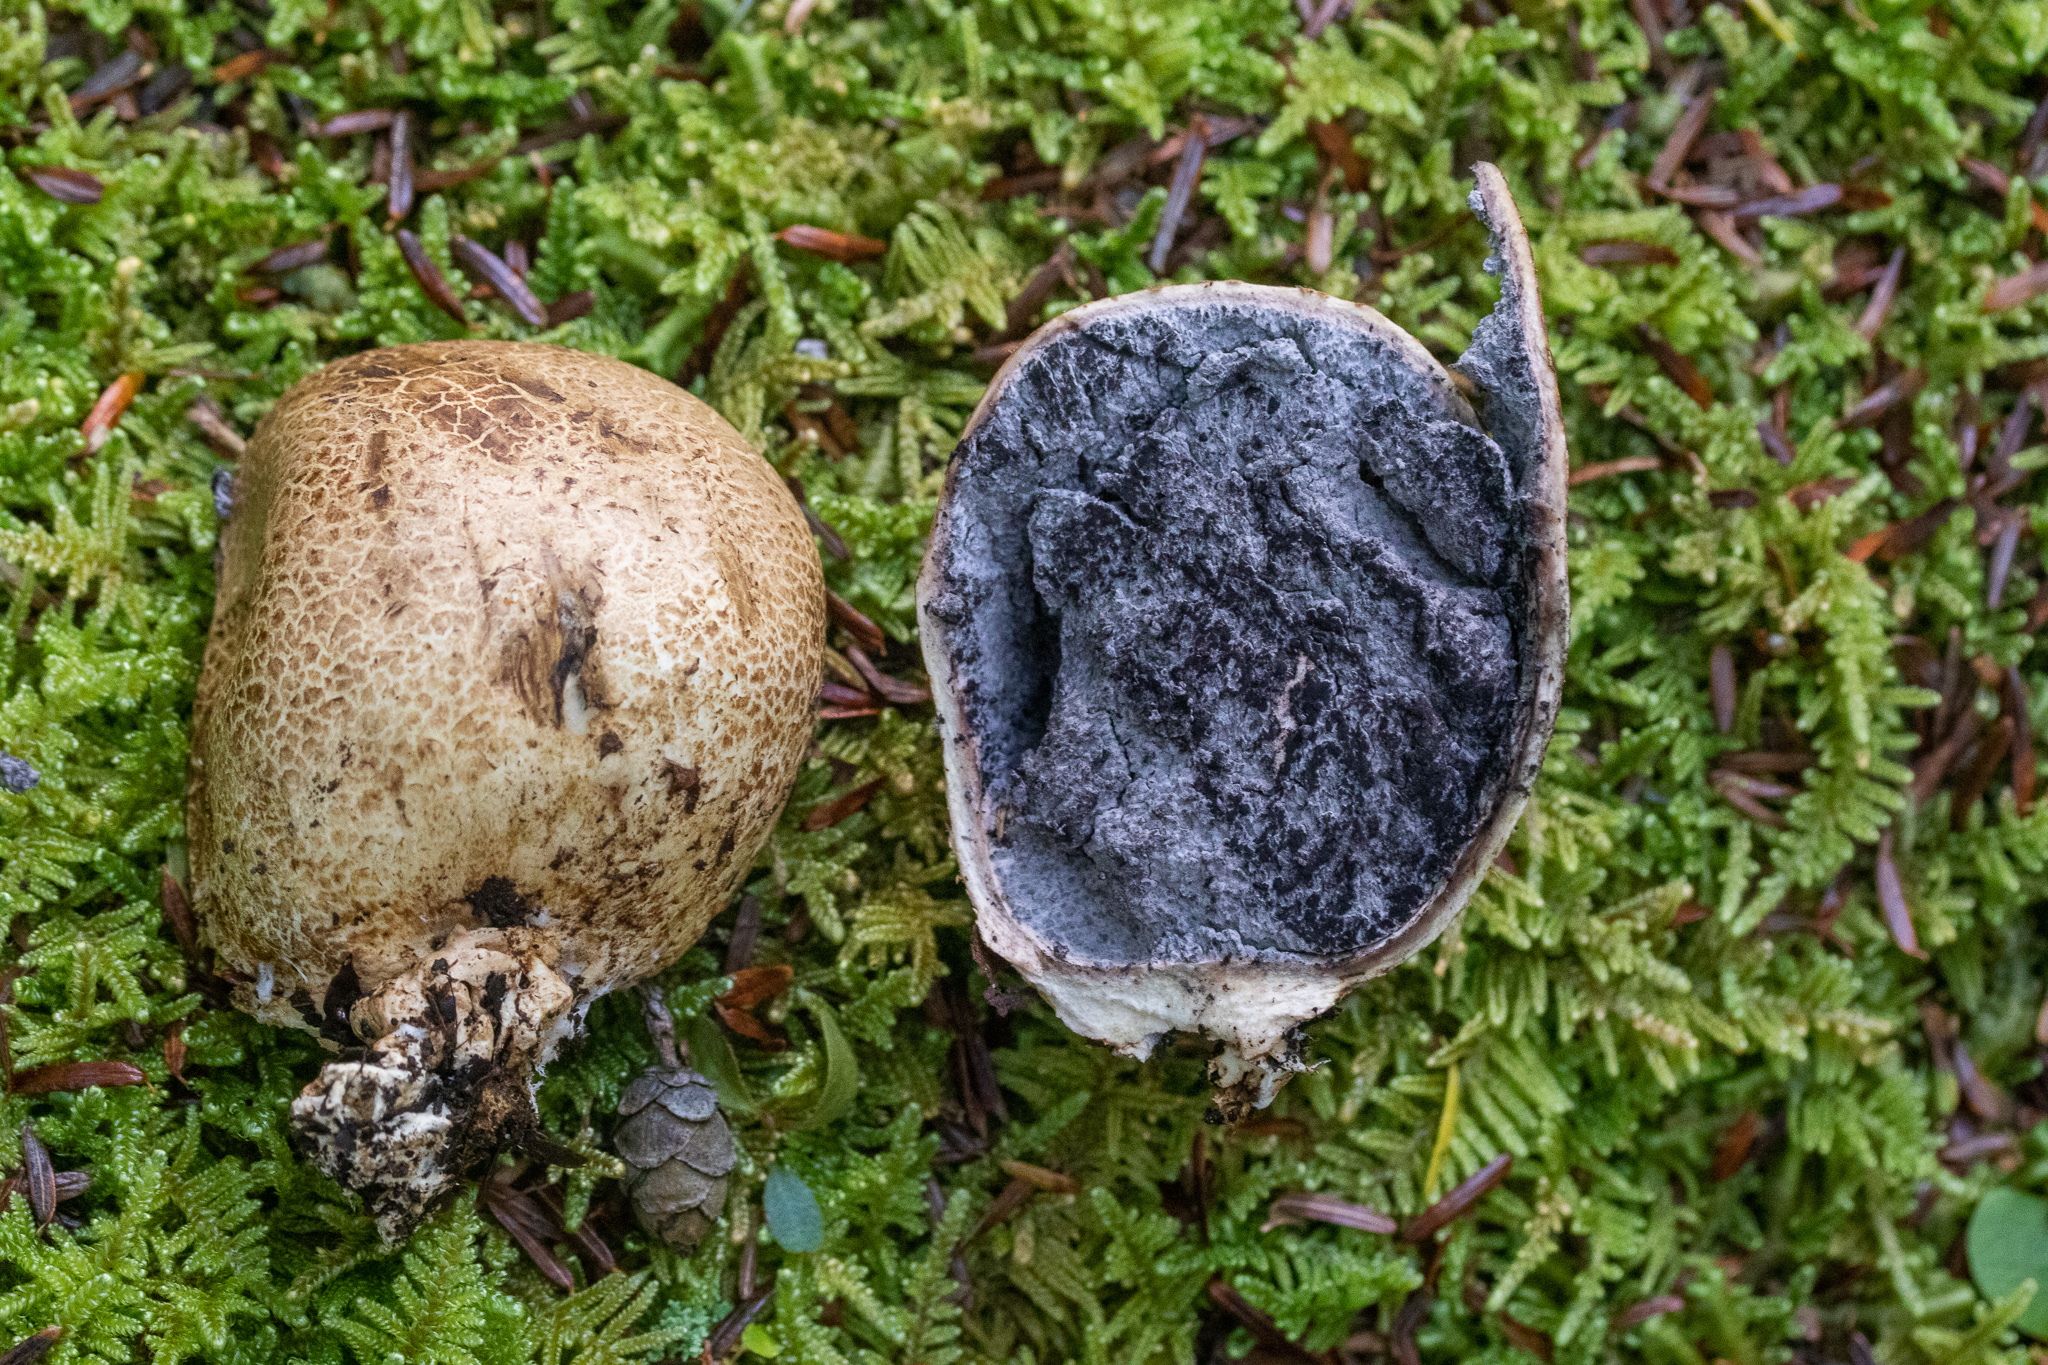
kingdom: Fungi
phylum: Basidiomycota
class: Agaricomycetes
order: Boletales
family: Sclerodermataceae
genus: Scleroderma
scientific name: Scleroderma cepa
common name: Onion earthball
